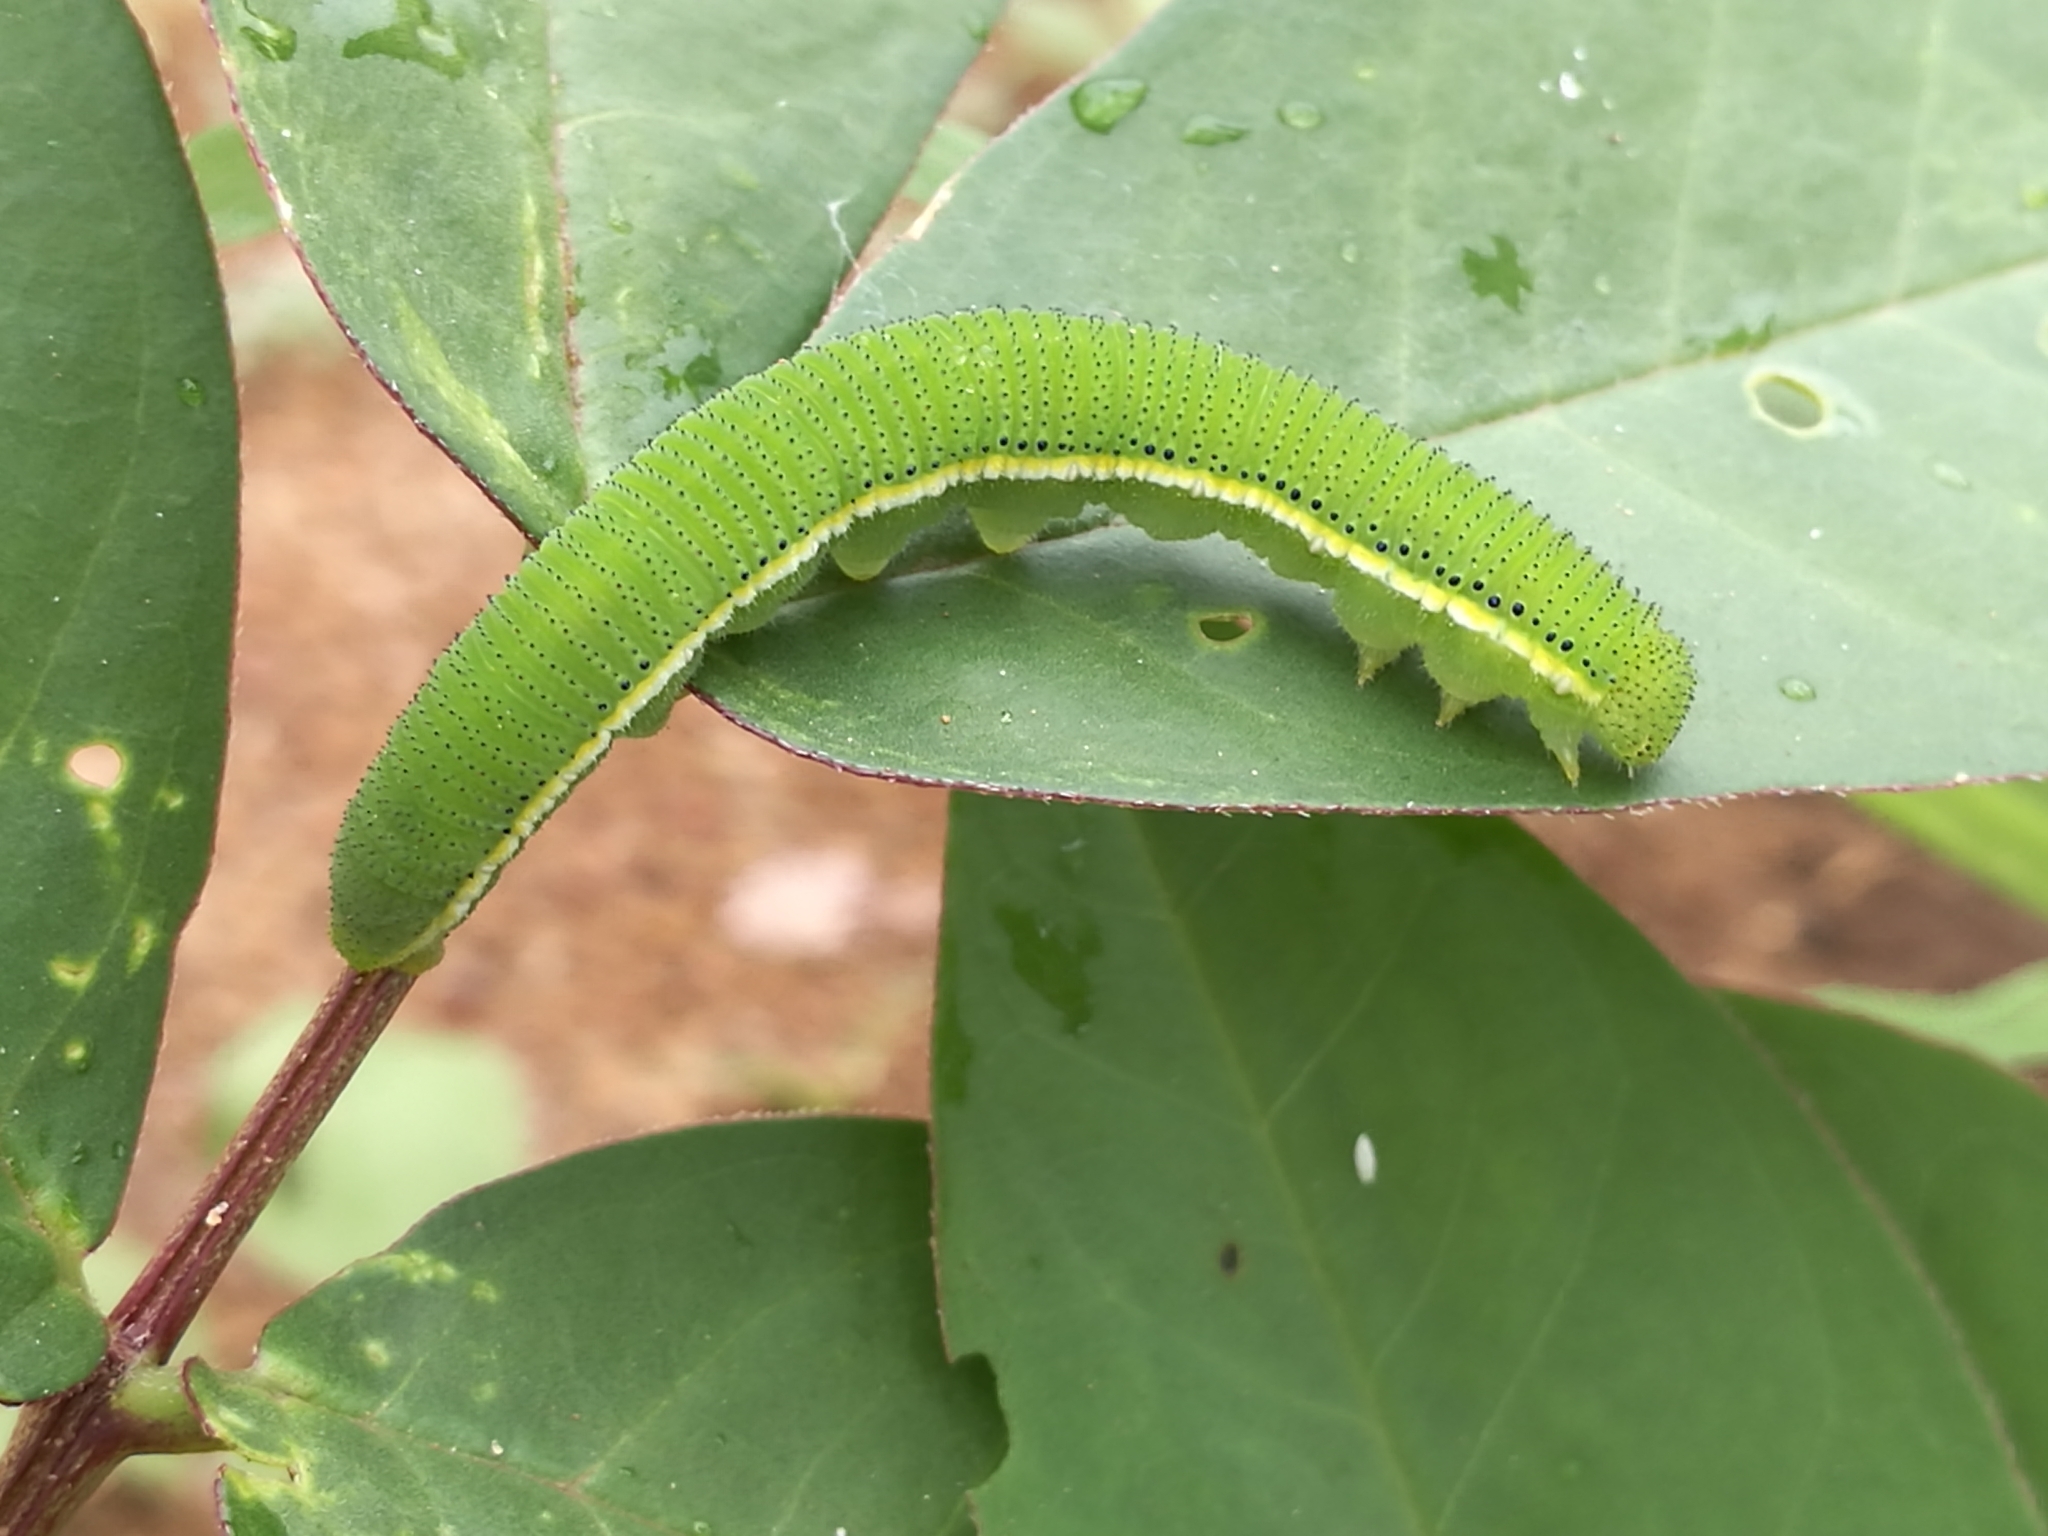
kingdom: Animalia
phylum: Arthropoda
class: Insecta
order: Lepidoptera
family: Pieridae
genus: Catopsilia
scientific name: Catopsilia florella
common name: African migrant
